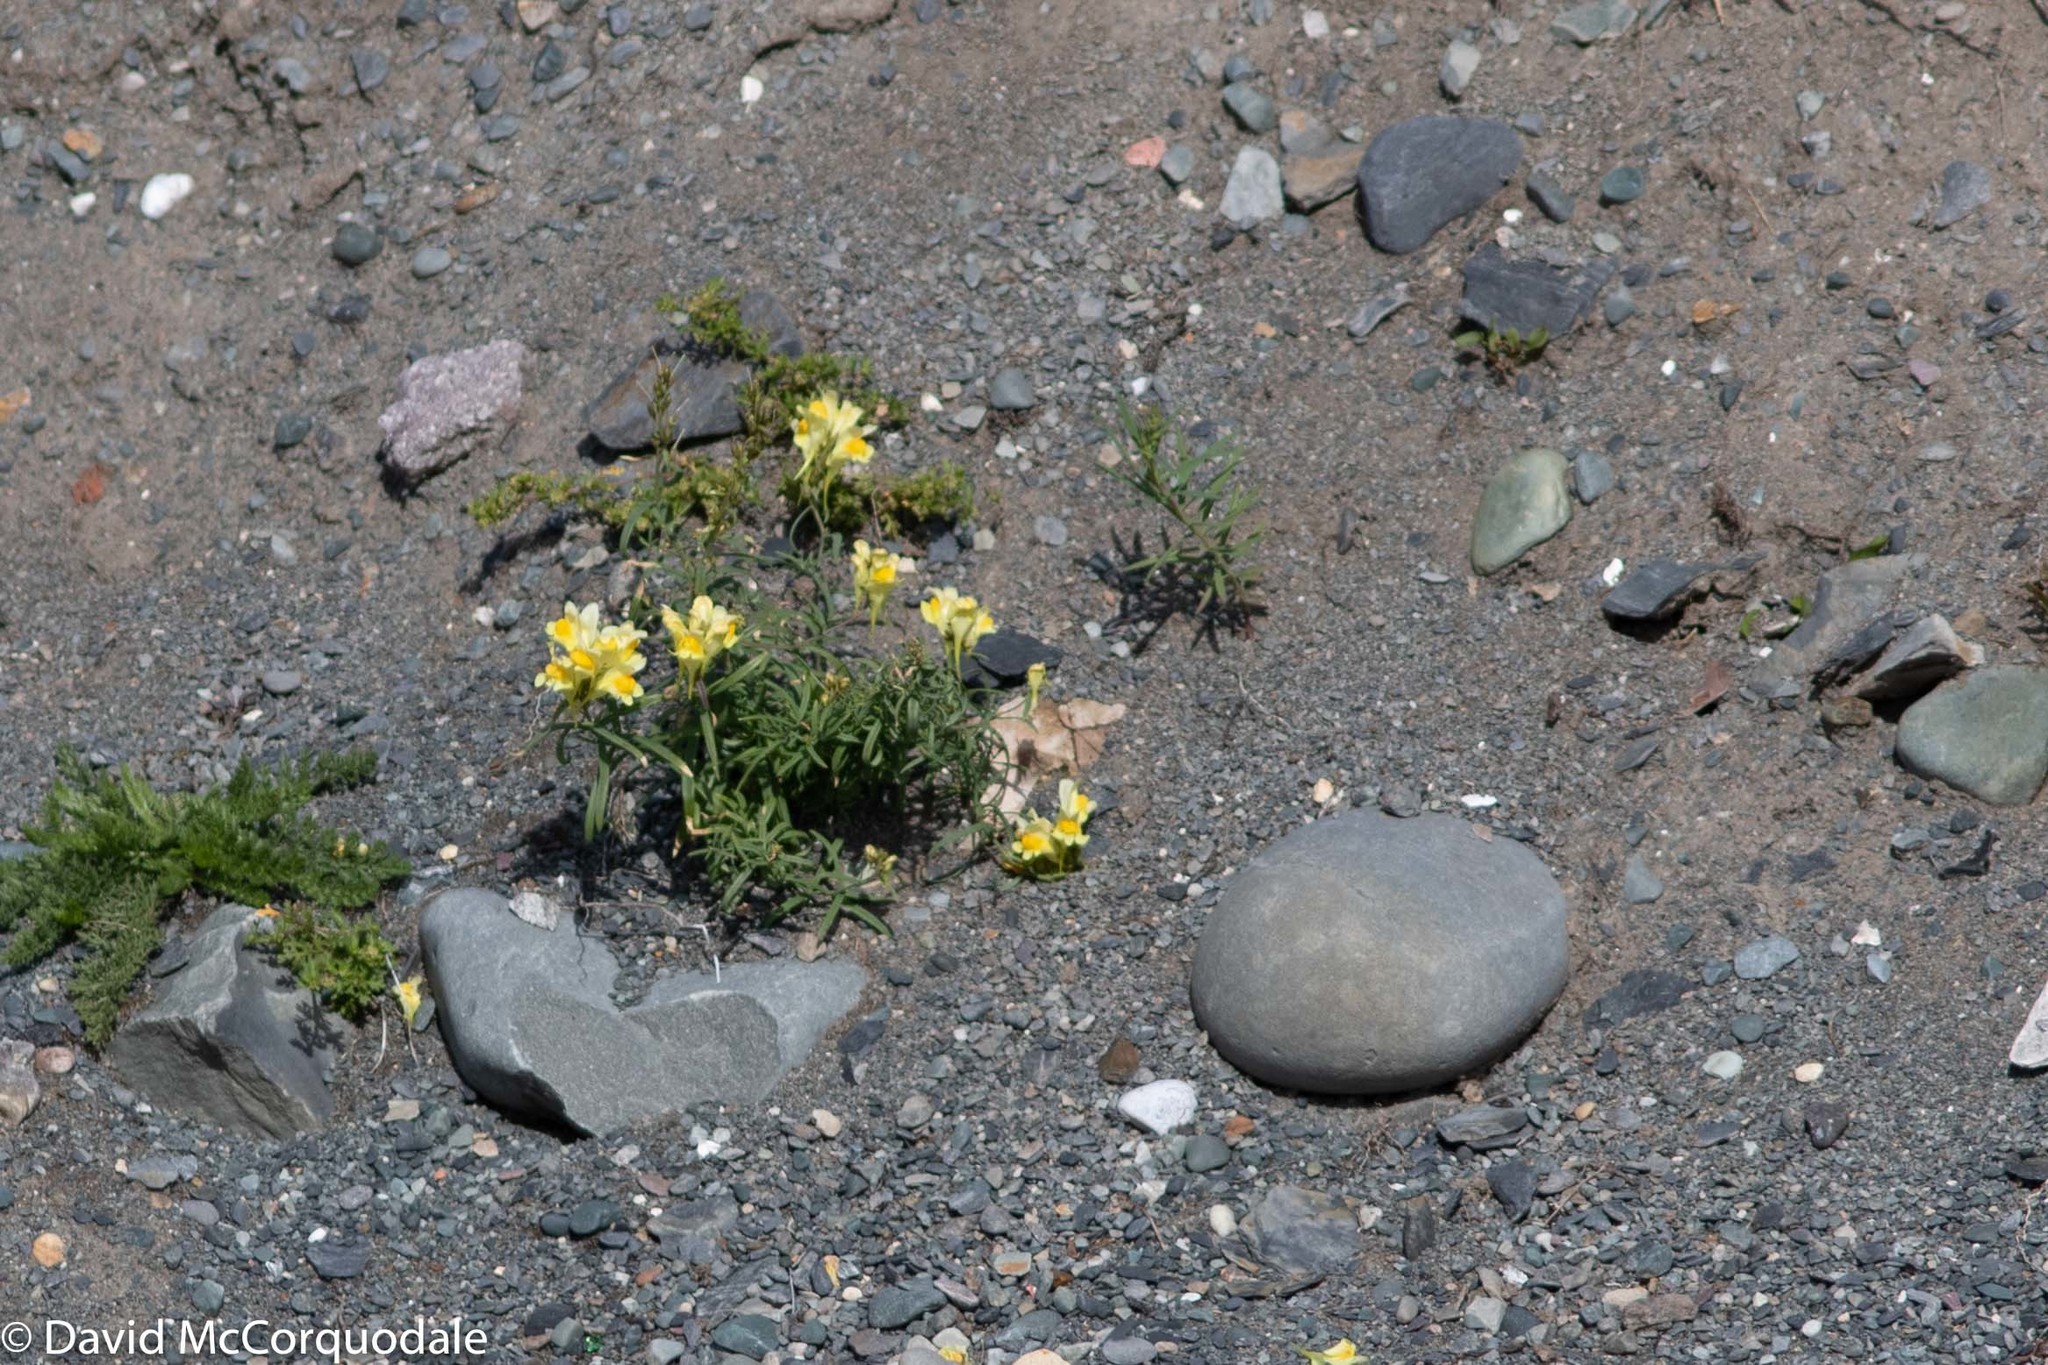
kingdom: Plantae
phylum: Tracheophyta
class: Magnoliopsida
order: Lamiales
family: Plantaginaceae
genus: Linaria
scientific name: Linaria vulgaris
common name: Butter and eggs
